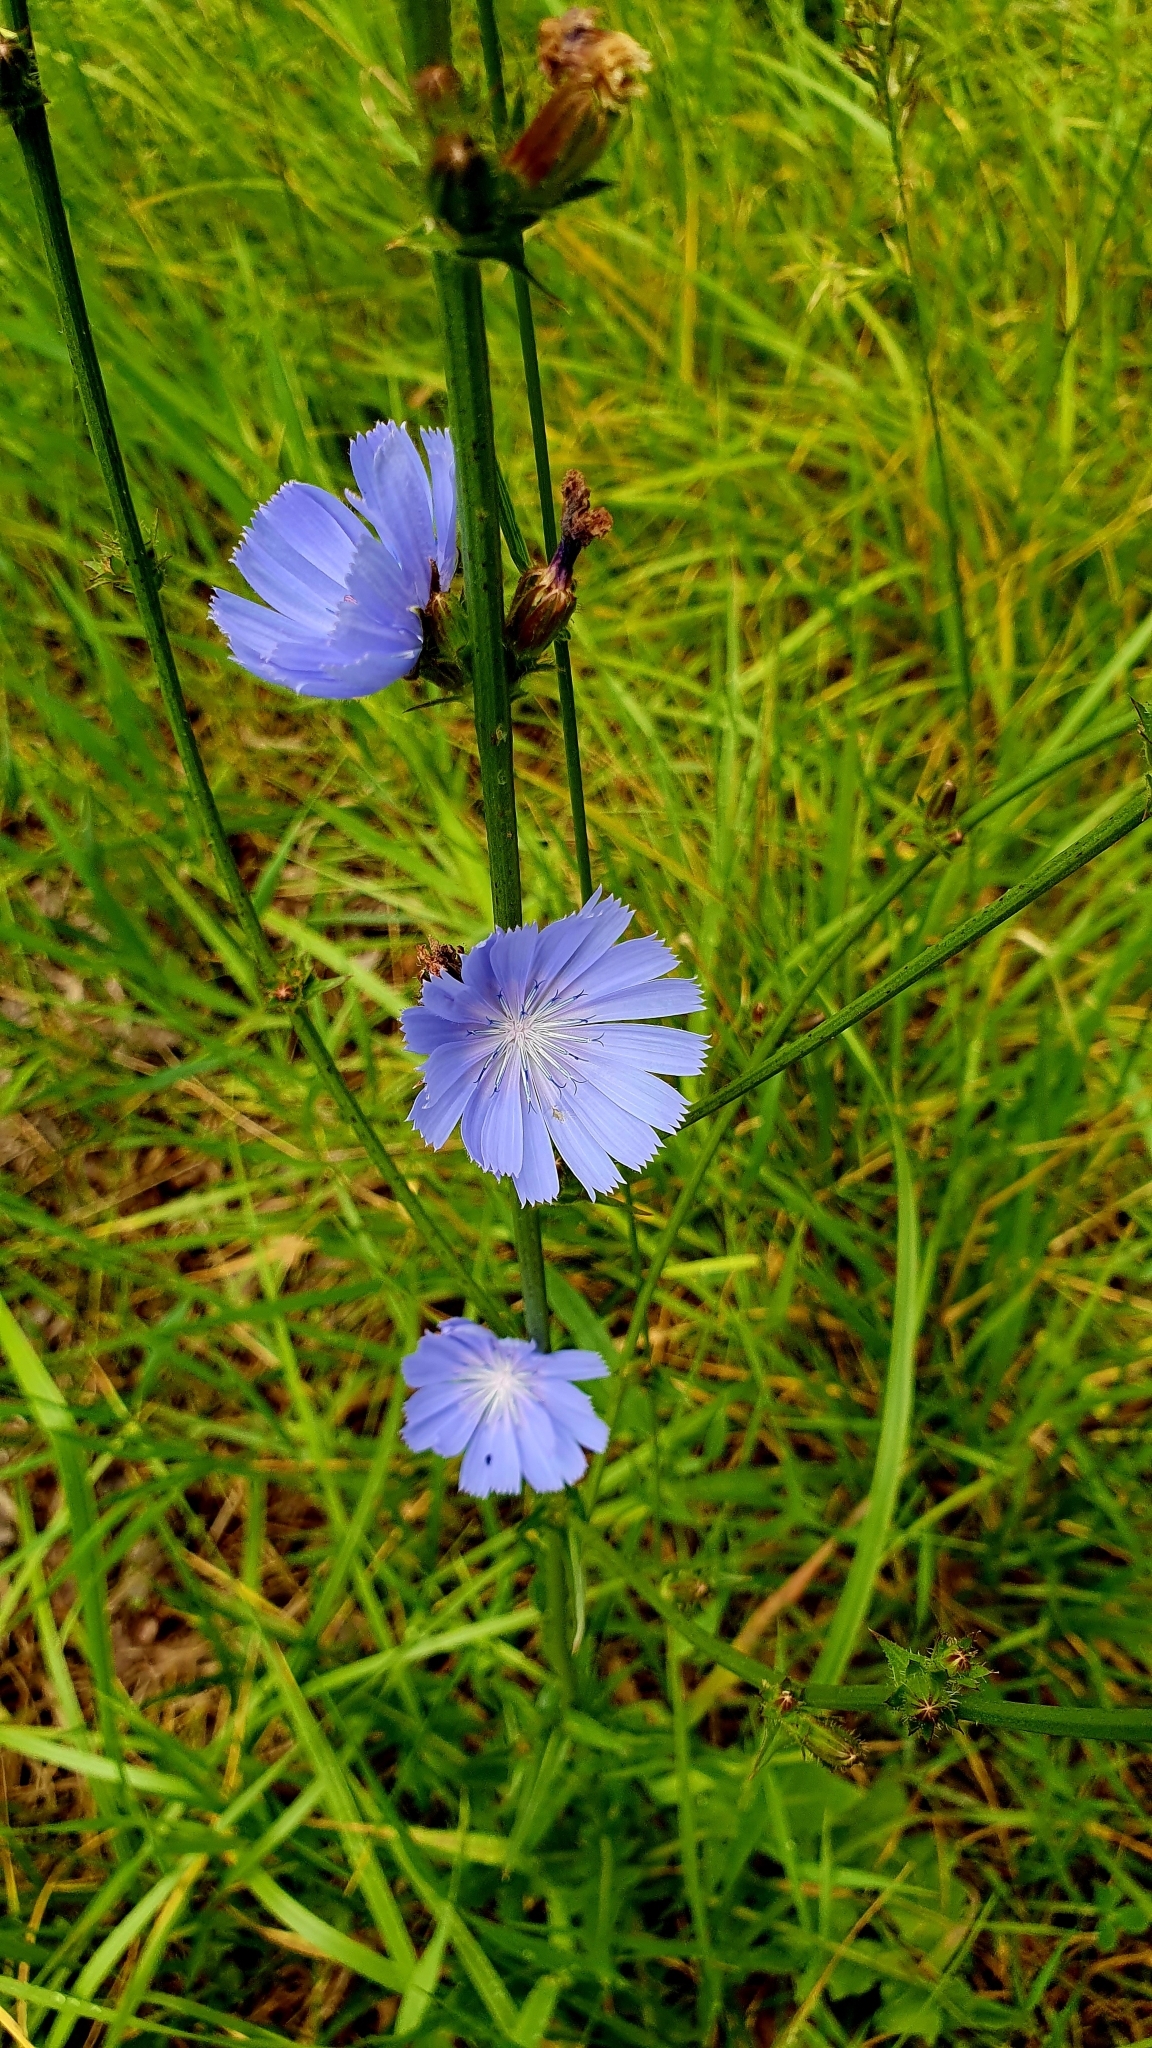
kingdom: Plantae
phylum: Tracheophyta
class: Magnoliopsida
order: Asterales
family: Asteraceae
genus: Cichorium
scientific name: Cichorium intybus
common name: Chicory
